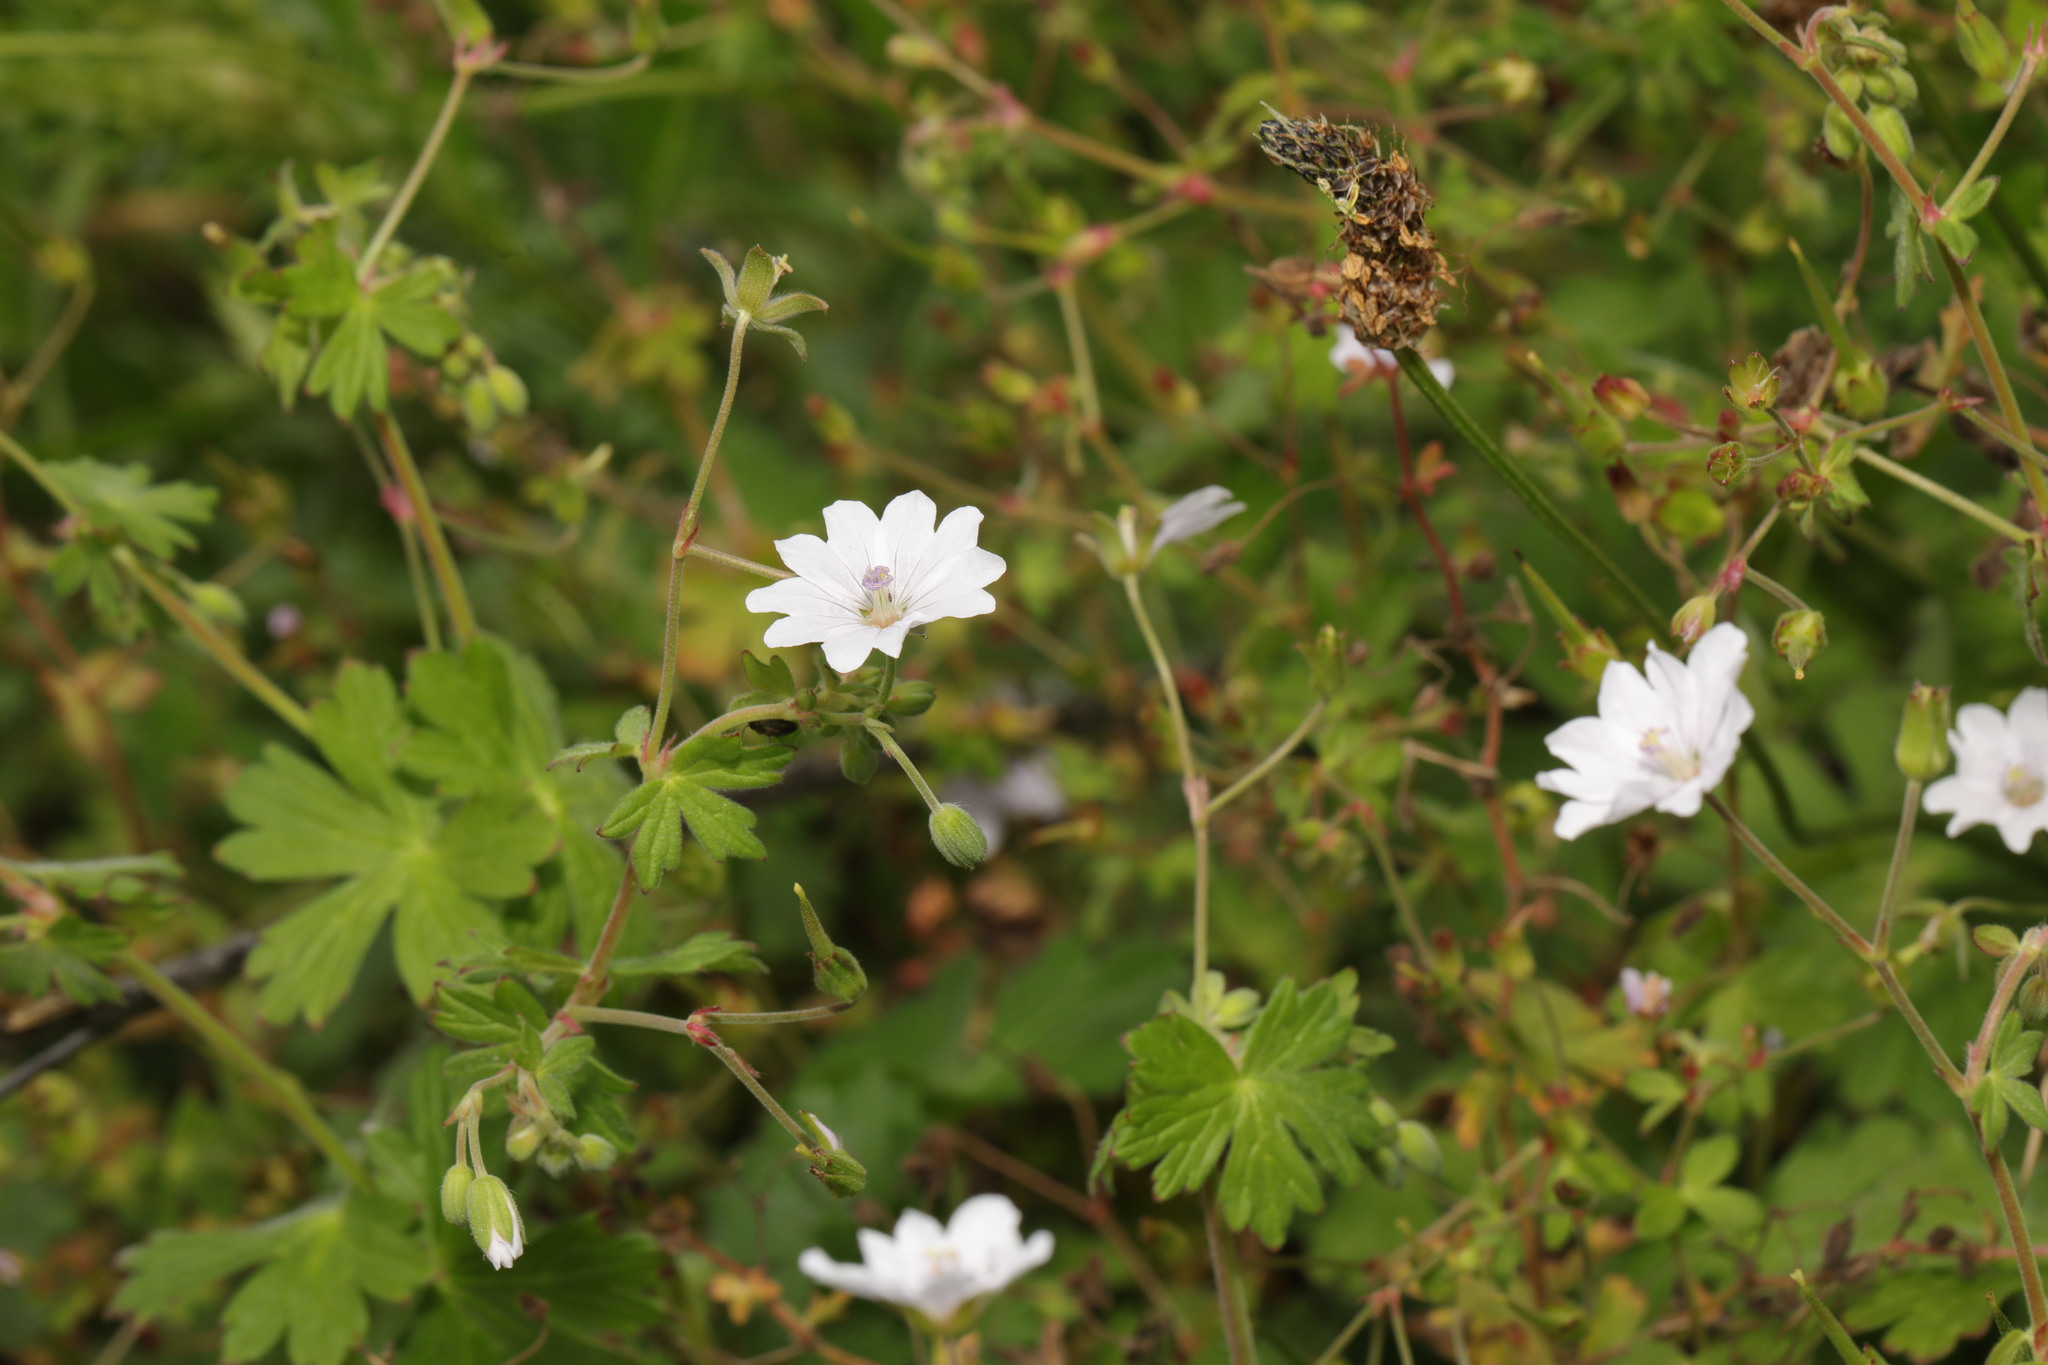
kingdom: Plantae
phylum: Tracheophyta
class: Magnoliopsida
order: Geraniales
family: Geraniaceae
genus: Geranium
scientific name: Geranium pyrenaicum
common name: Hedgerow crane's-bill
